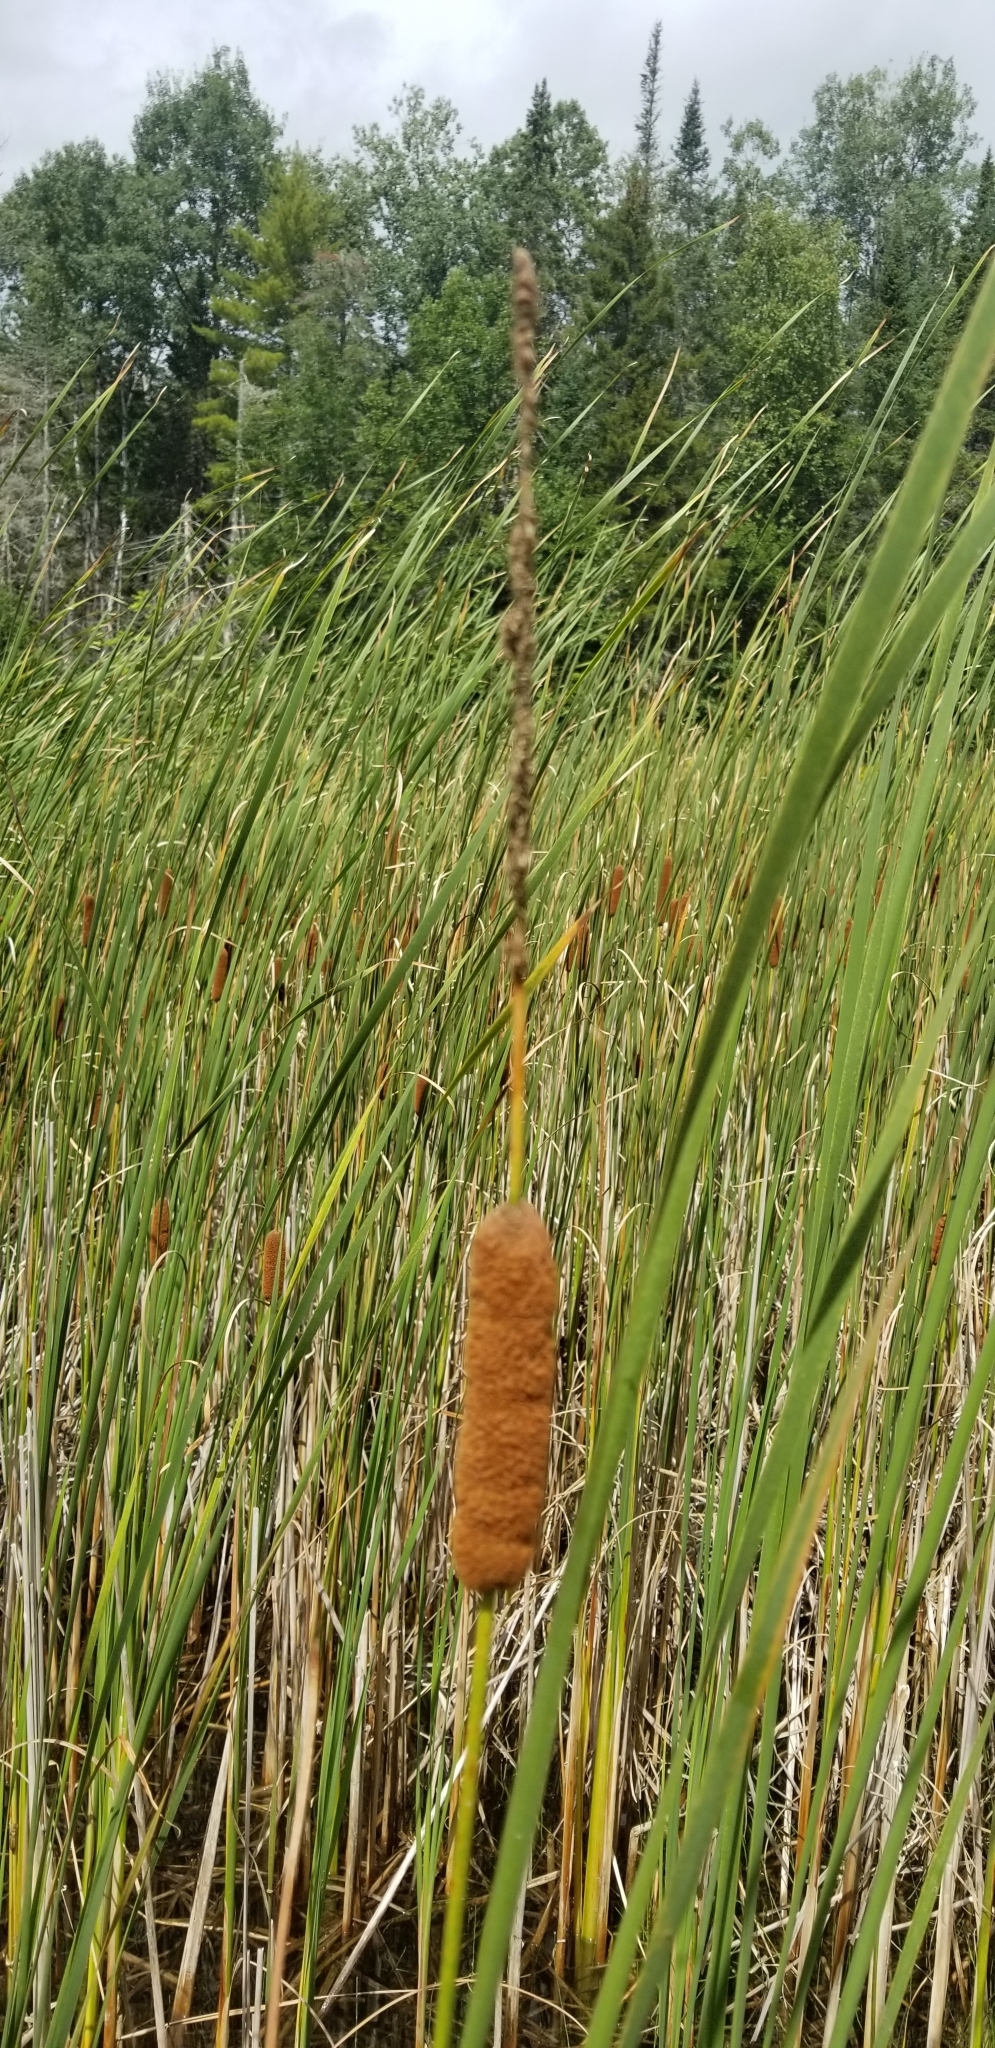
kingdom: Plantae
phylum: Tracheophyta
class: Liliopsida
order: Poales
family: Typhaceae
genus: Typha
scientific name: Typha angustifolia
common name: Lesser bulrush
